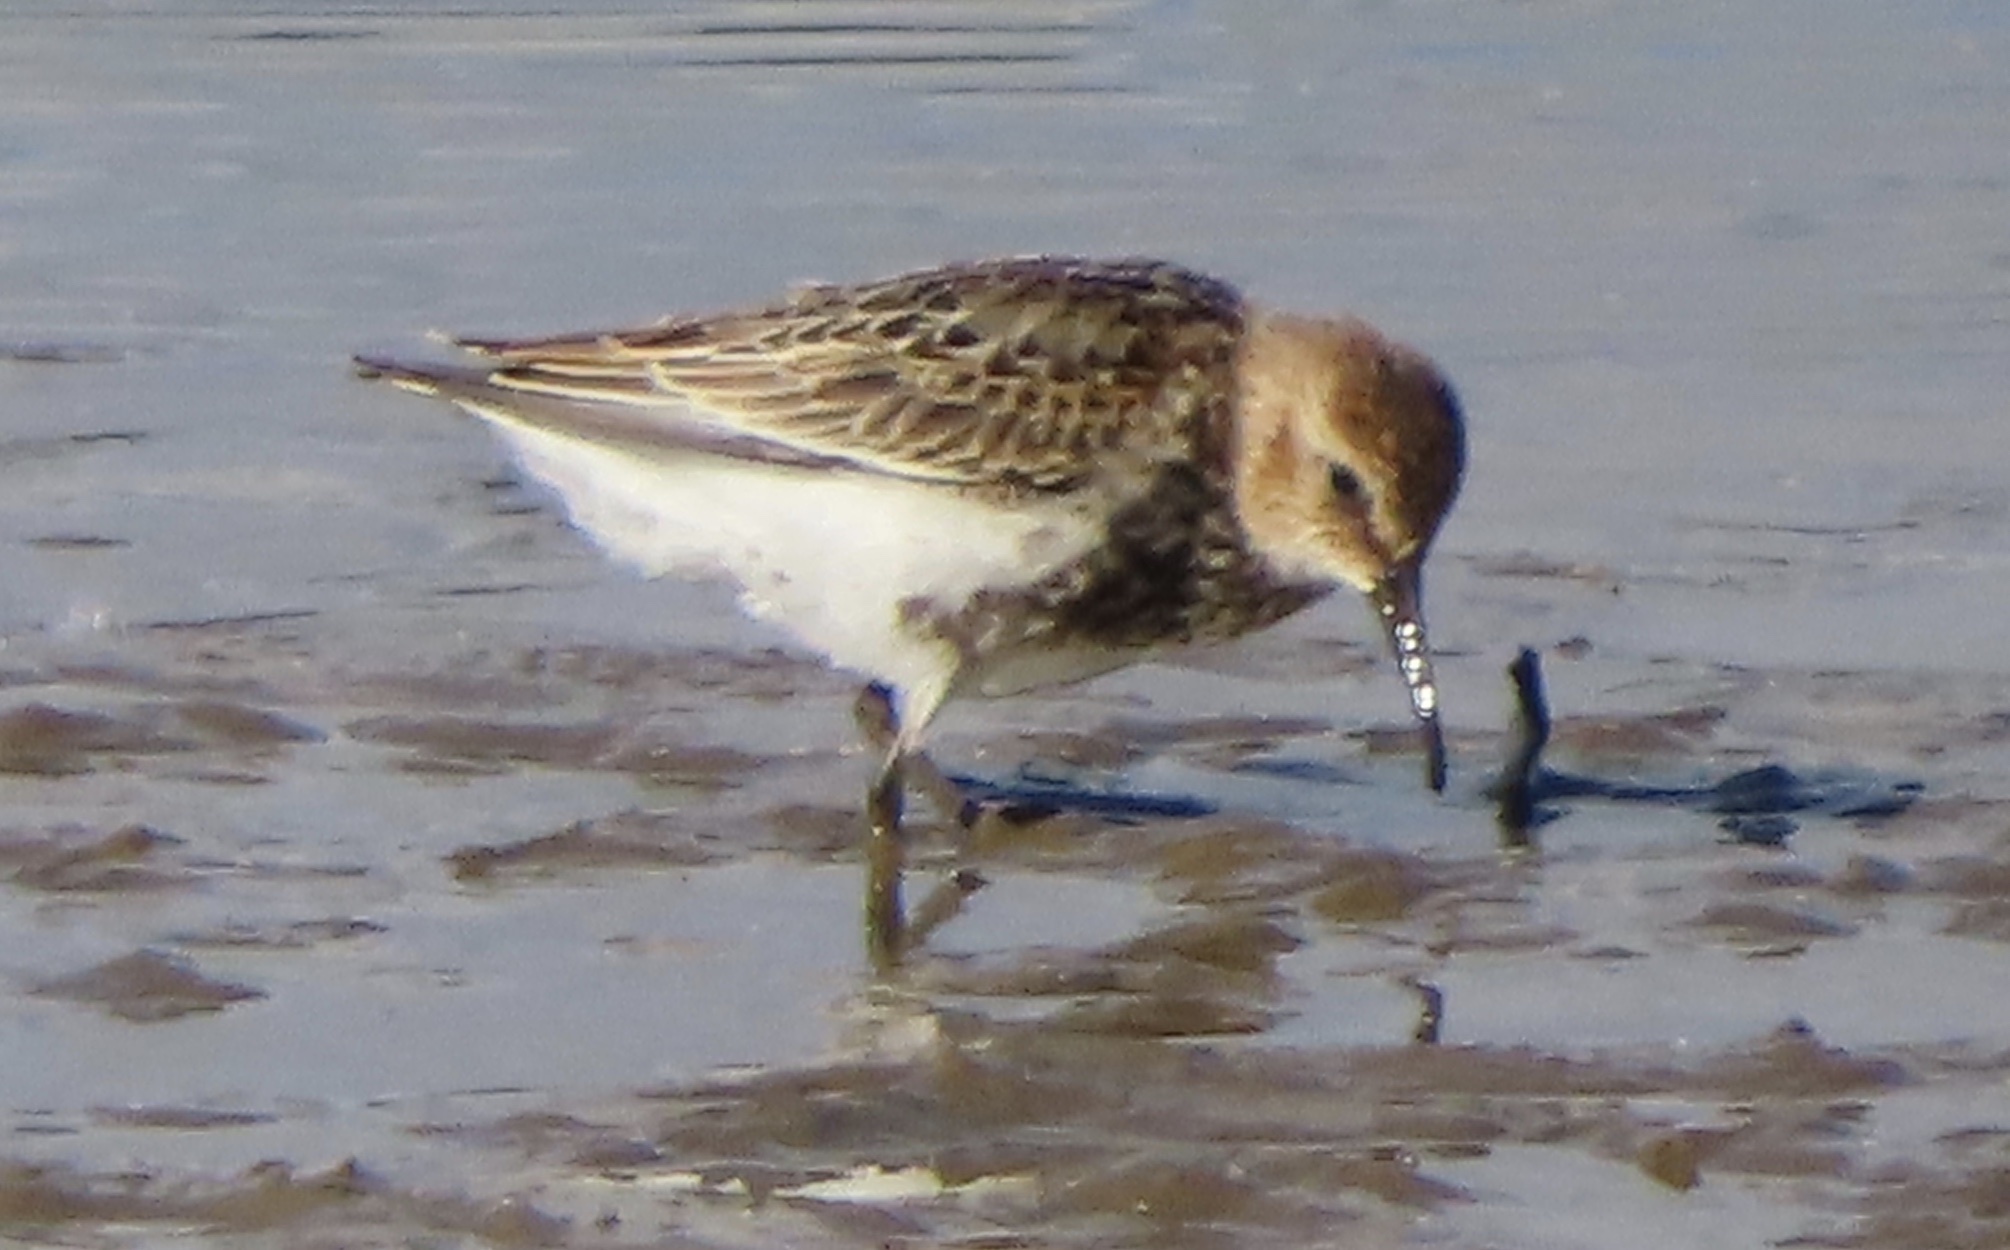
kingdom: Animalia
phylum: Chordata
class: Aves
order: Charadriiformes
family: Scolopacidae
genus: Calidris
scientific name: Calidris alpina
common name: Dunlin
